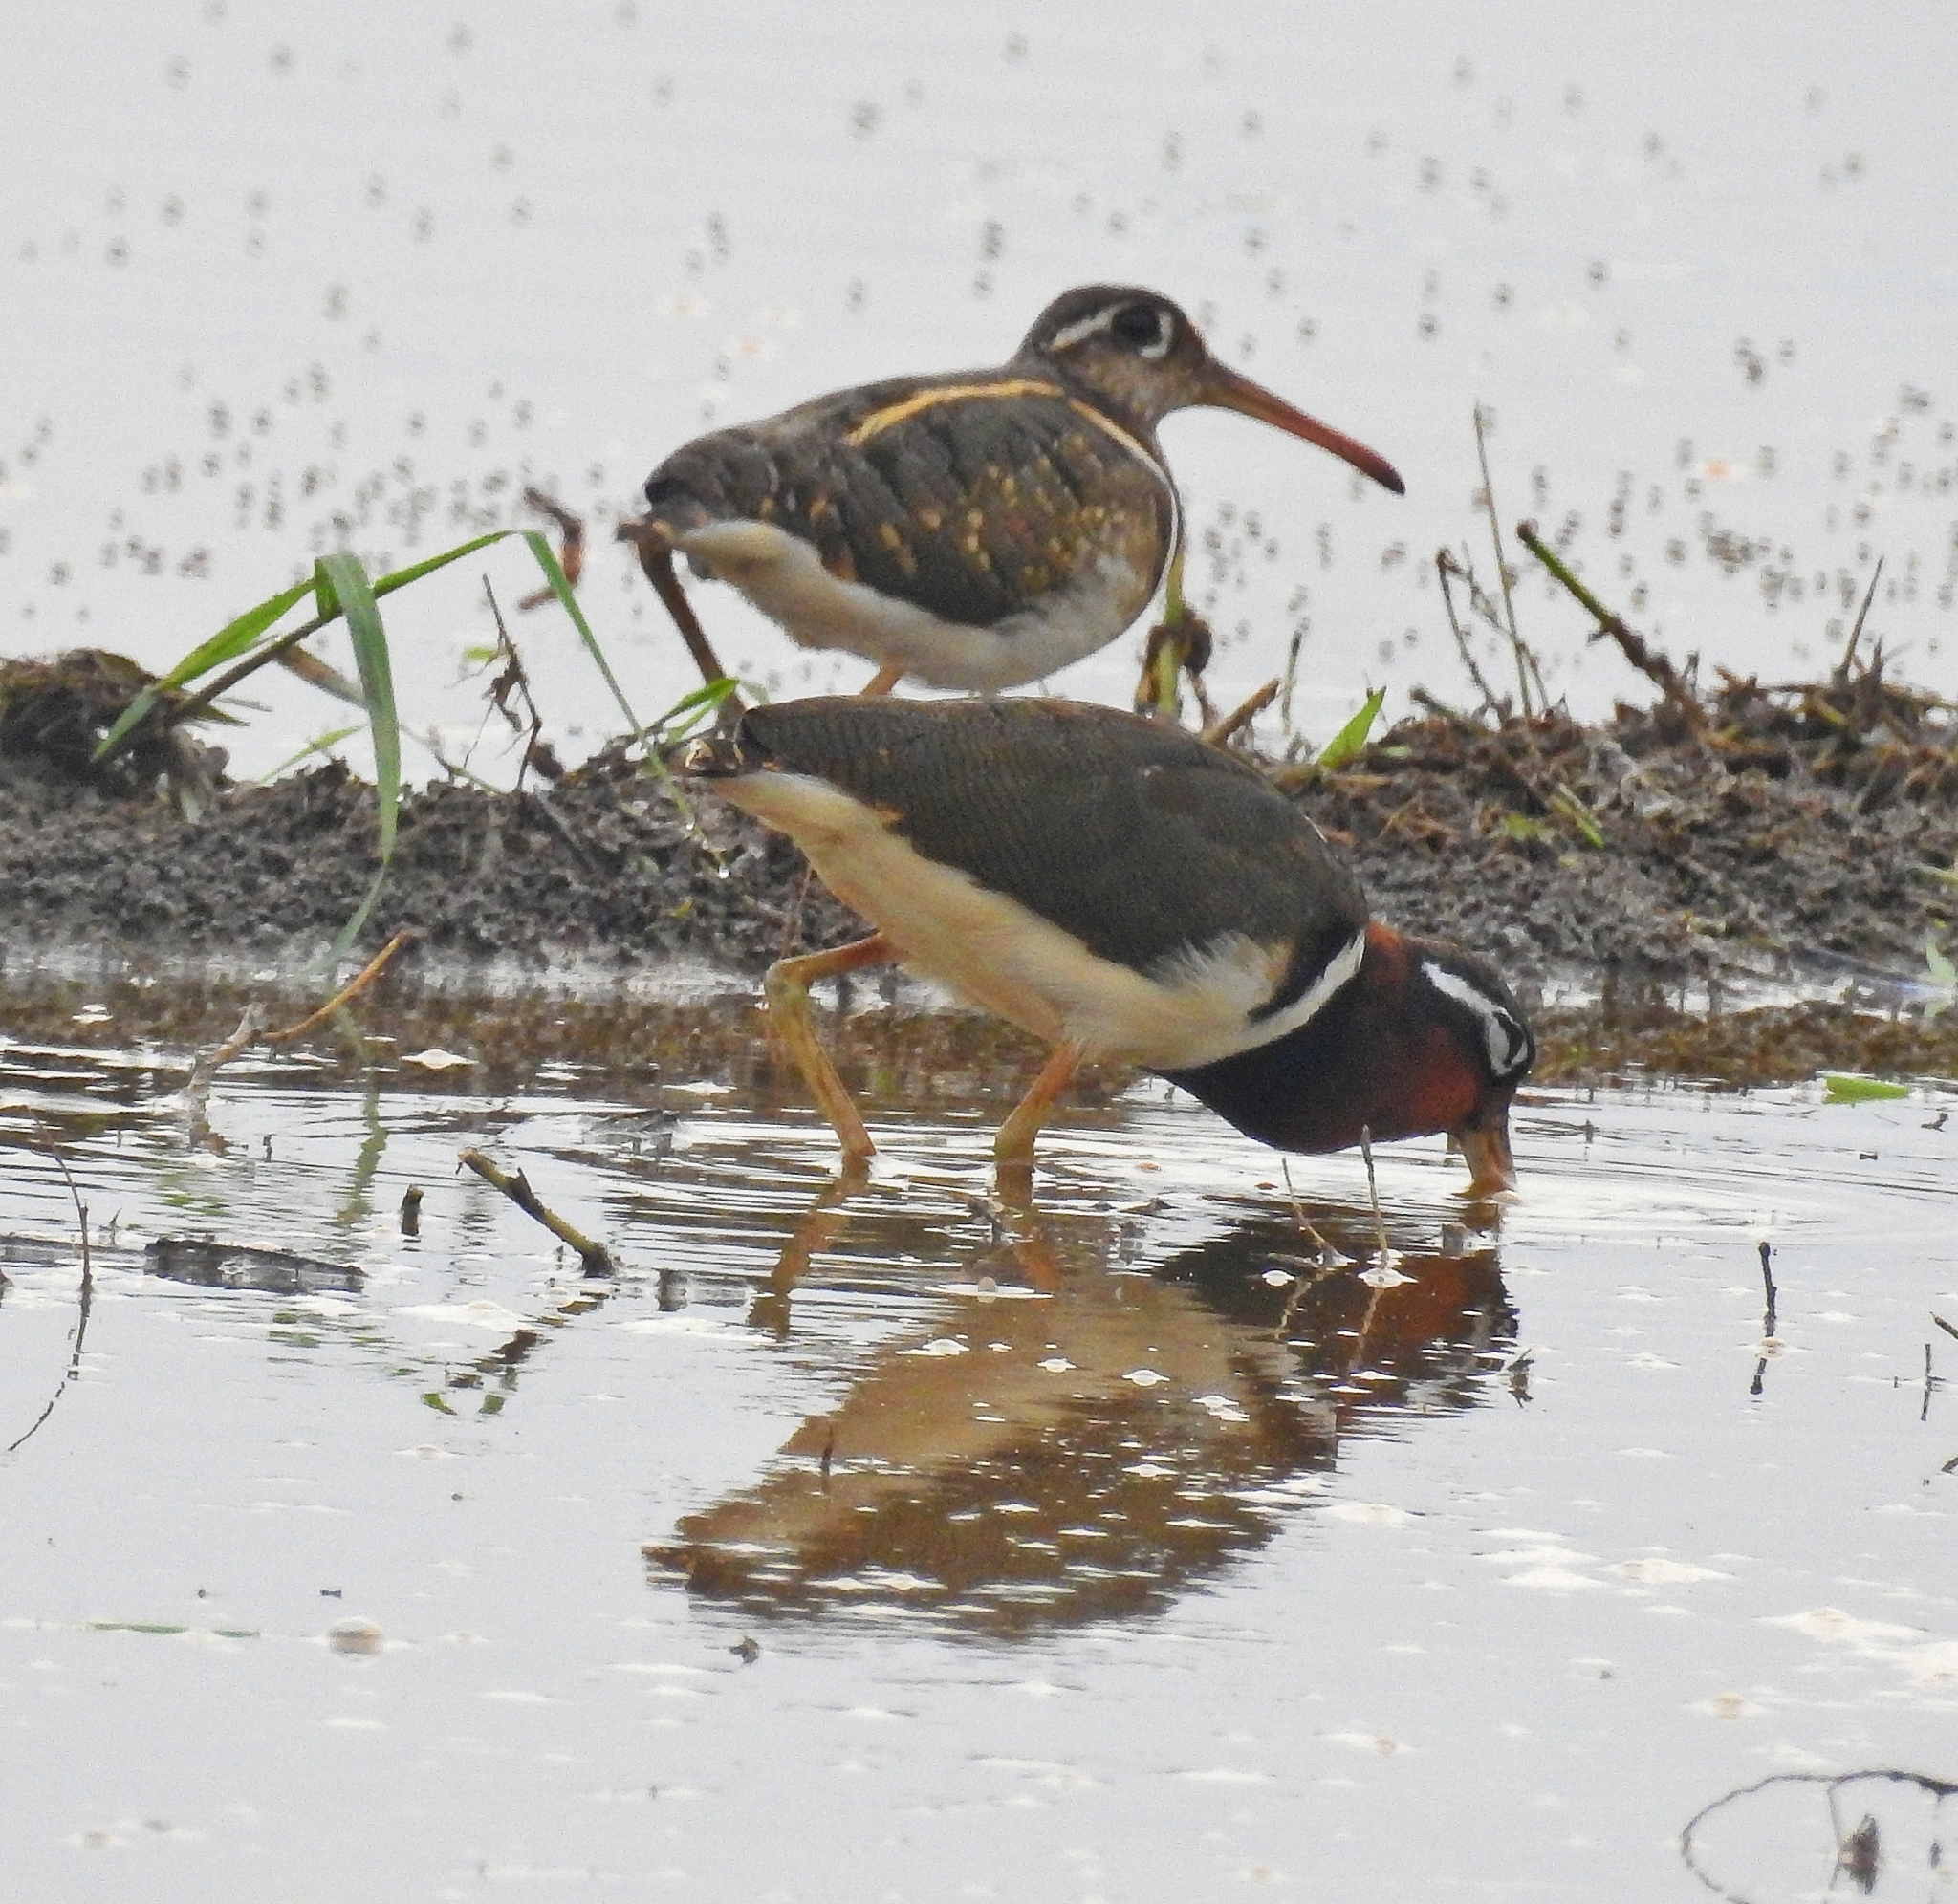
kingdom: Animalia
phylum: Chordata
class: Aves
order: Charadriiformes
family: Rostratulidae
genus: Rostratula
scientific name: Rostratula benghalensis
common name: Greater painted-snipe
